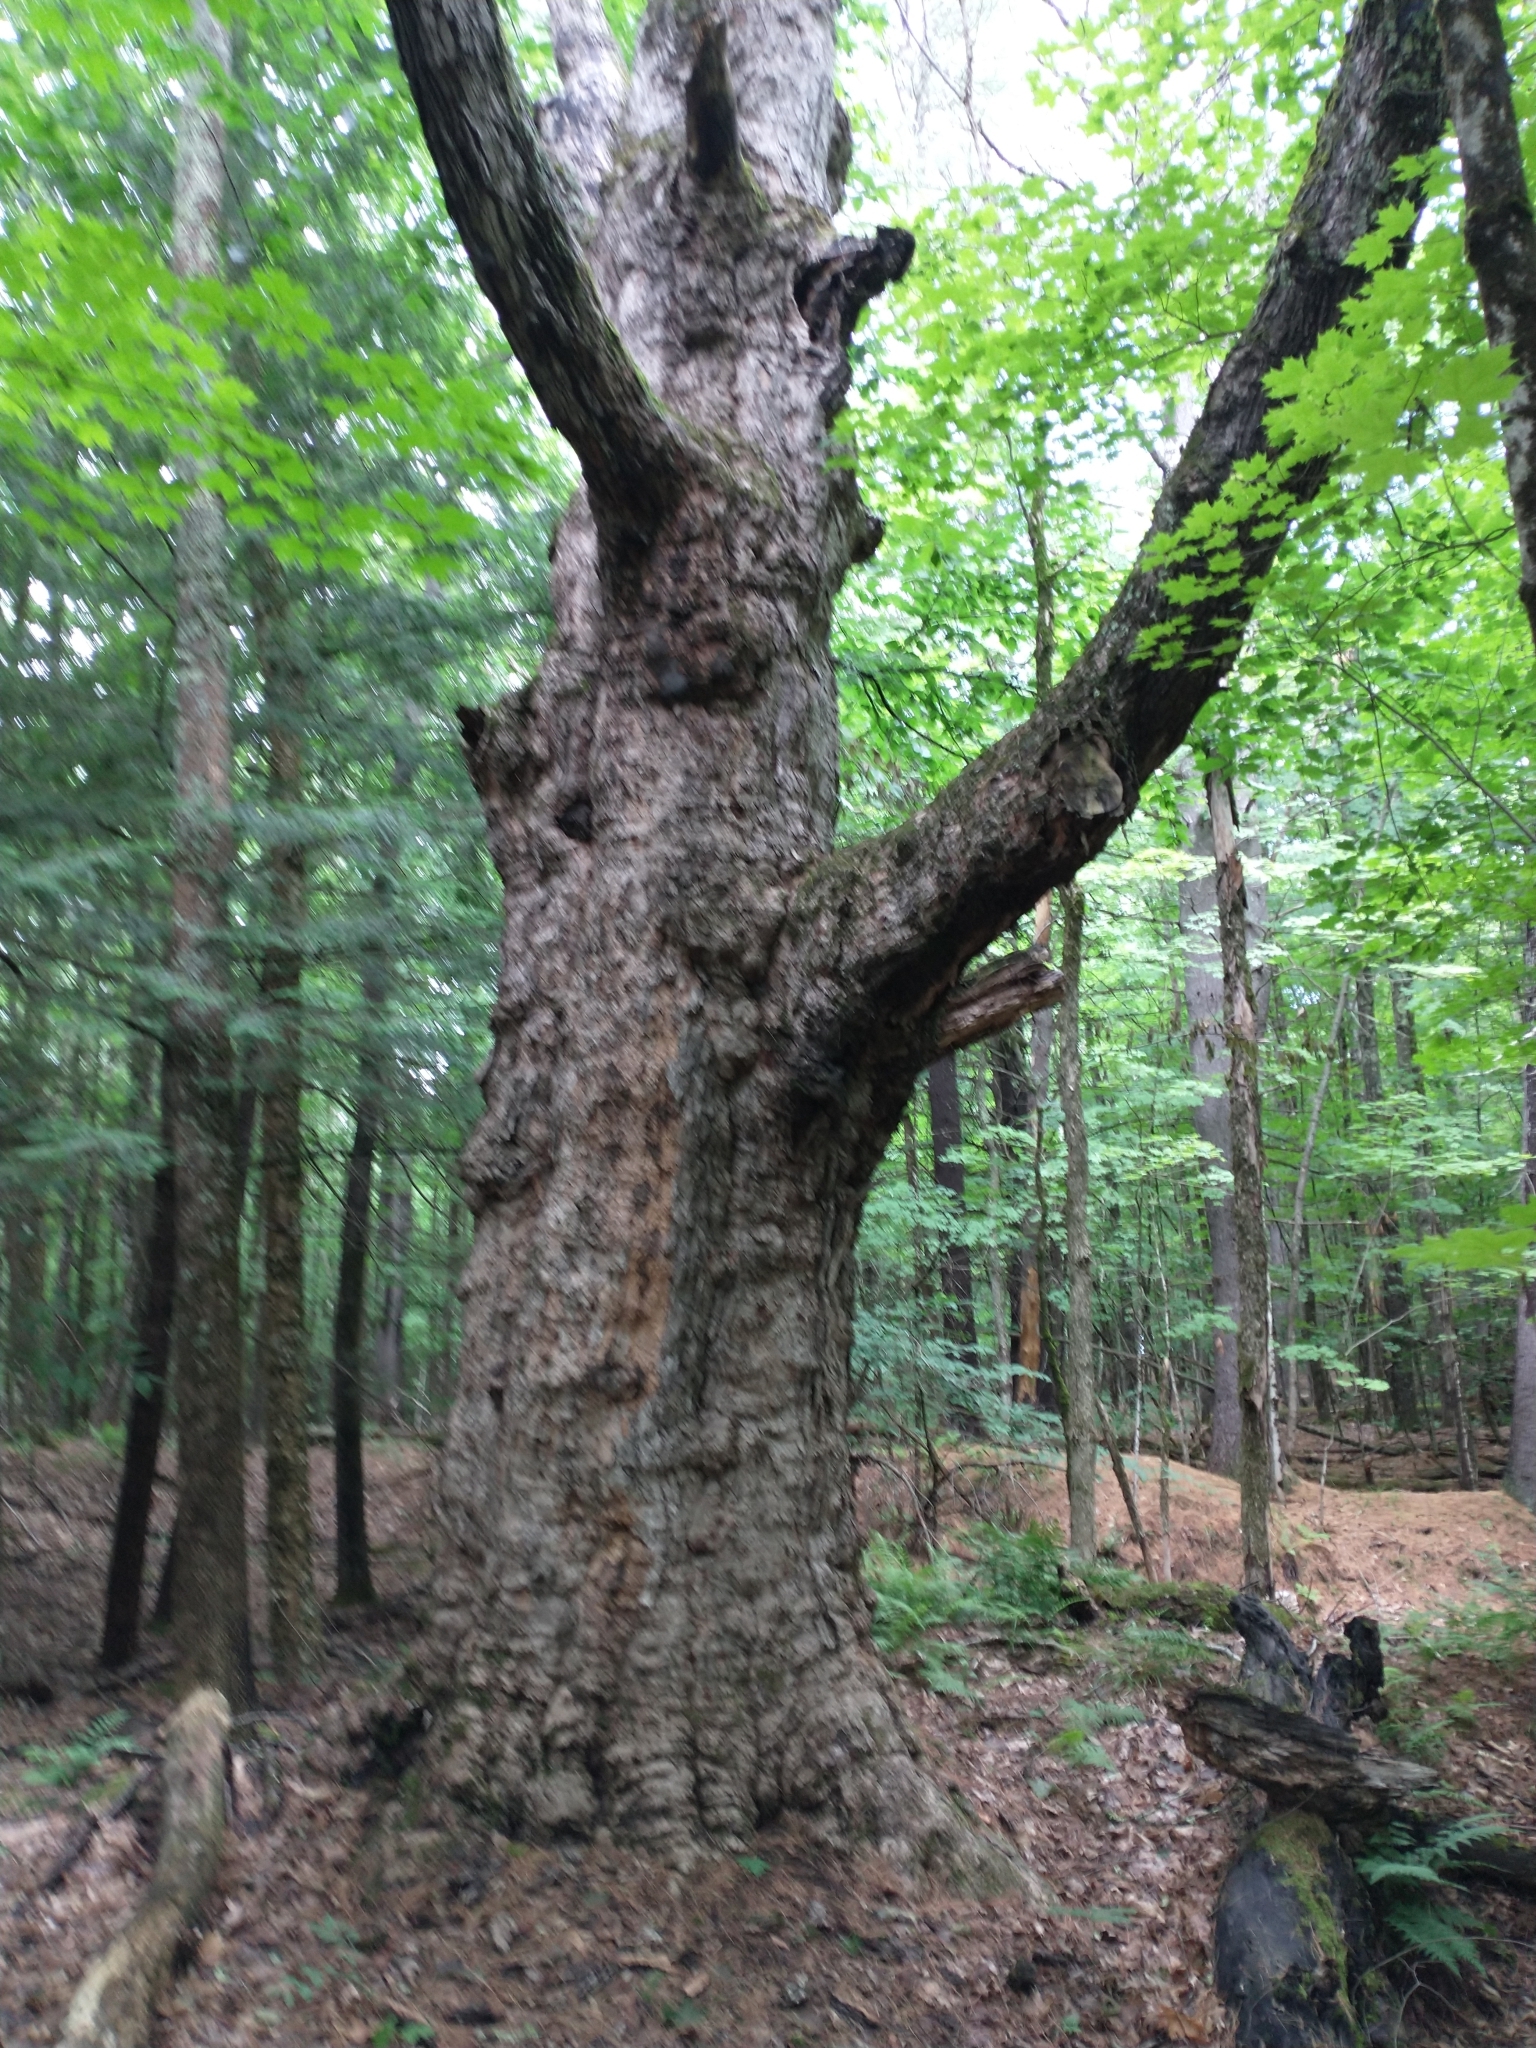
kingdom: Plantae
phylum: Tracheophyta
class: Magnoliopsida
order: Sapindales
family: Sapindaceae
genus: Acer
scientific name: Acer saccharum
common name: Sugar maple
